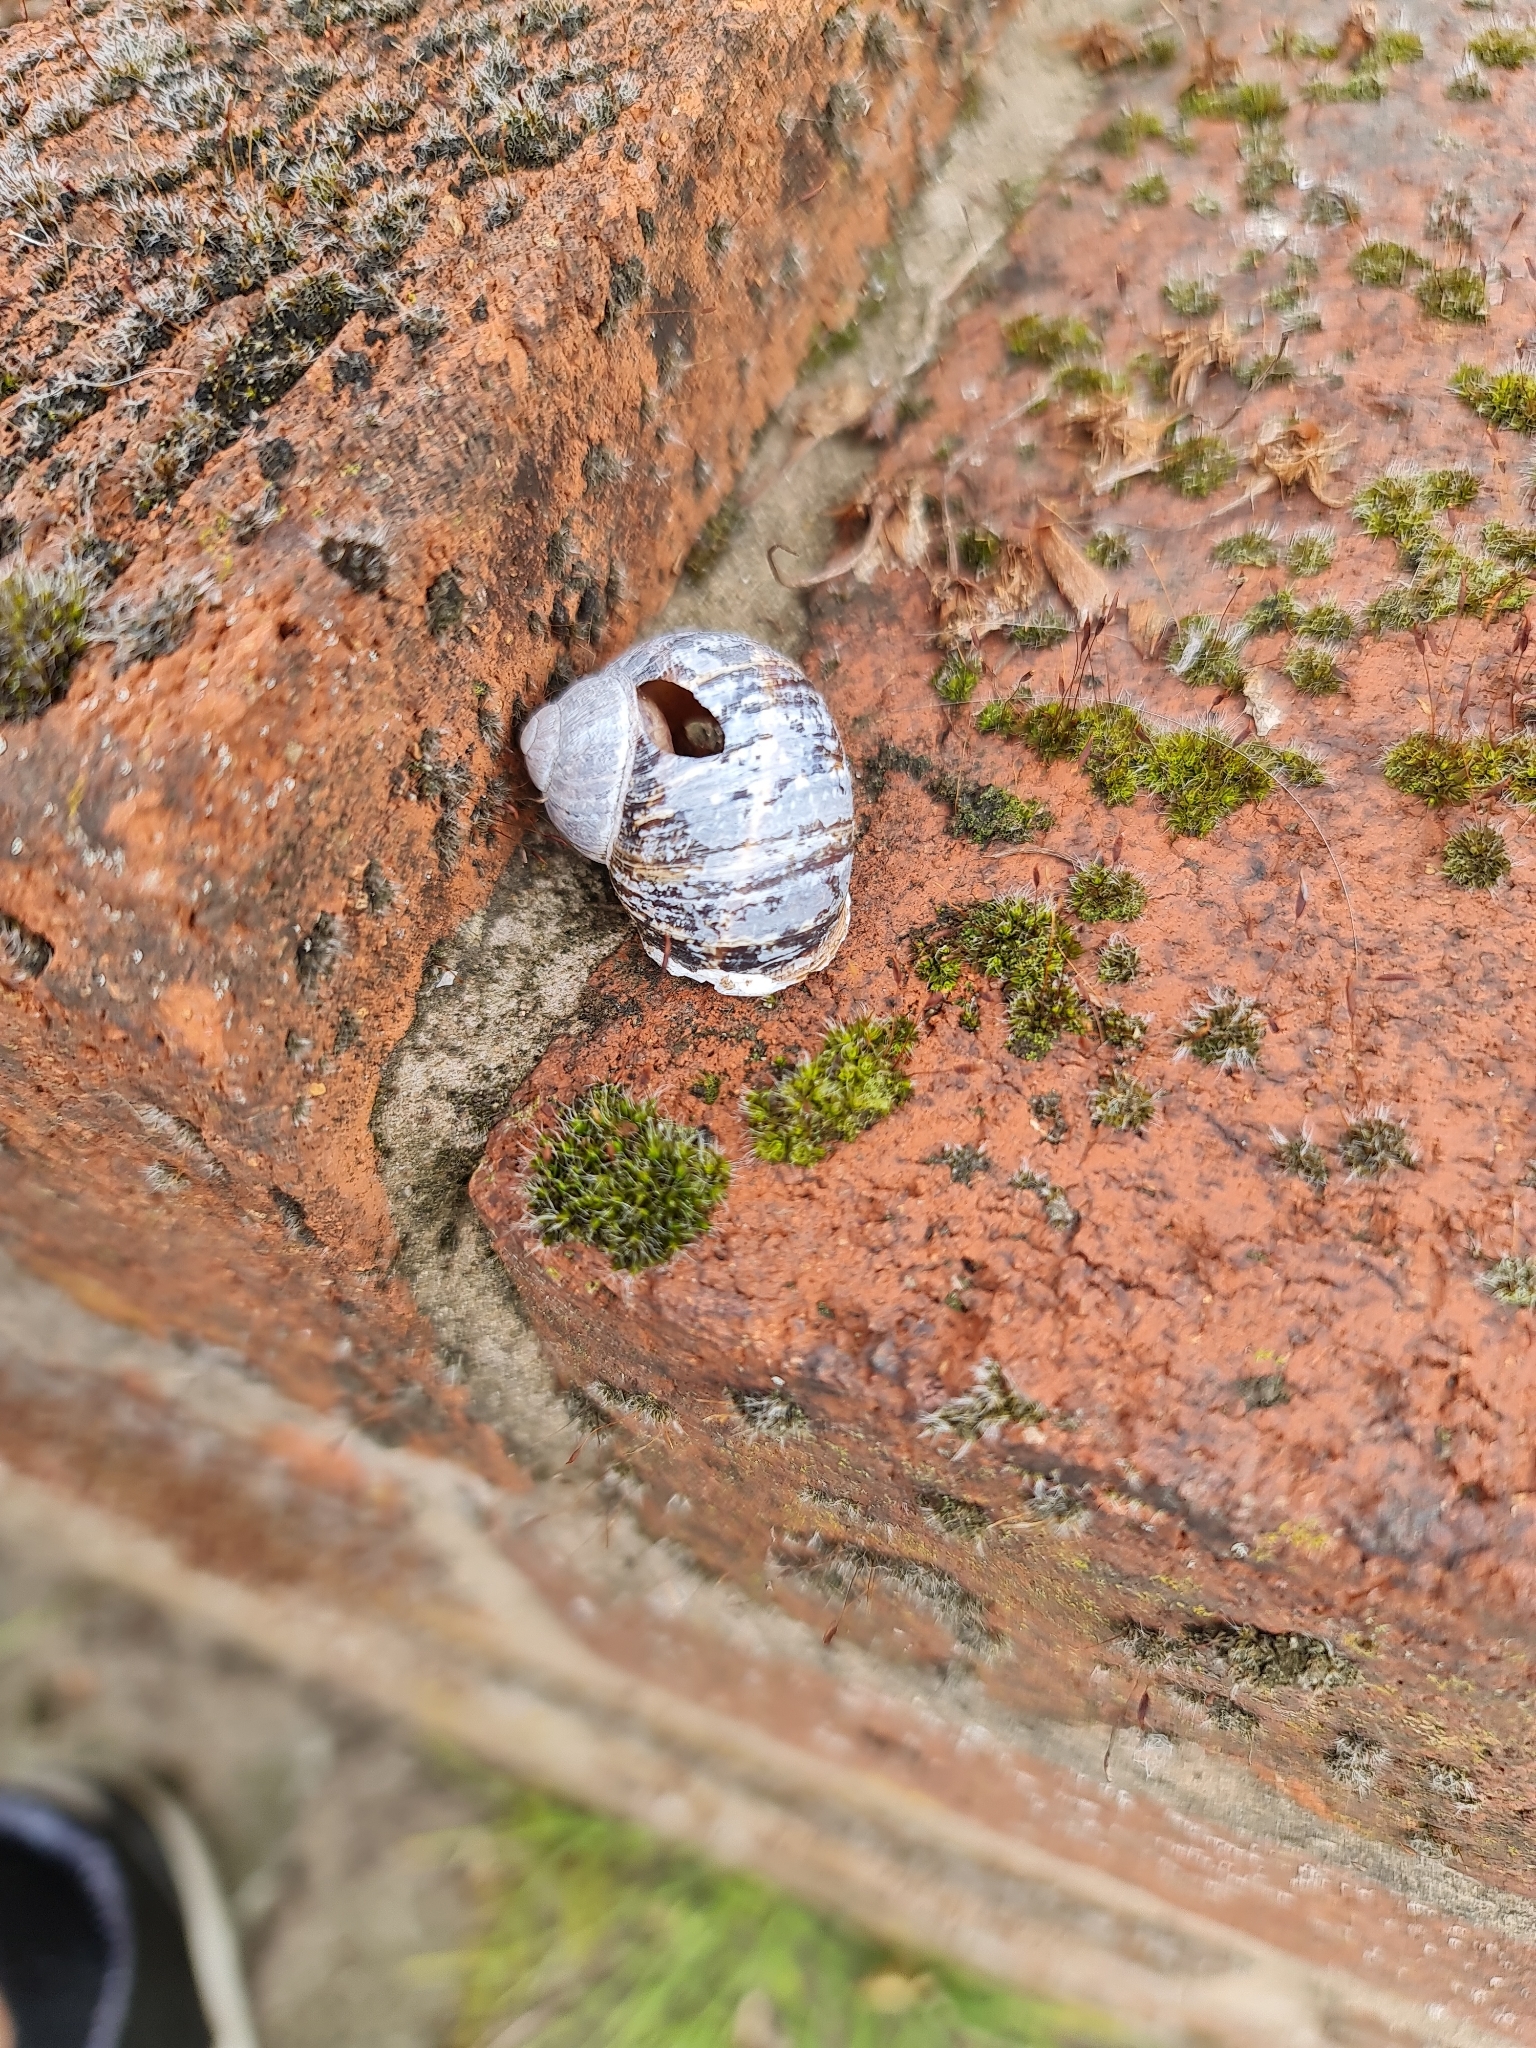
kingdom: Animalia
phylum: Mollusca
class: Gastropoda
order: Stylommatophora
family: Helicidae
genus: Cornu
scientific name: Cornu aspersum
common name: Brown garden snail
